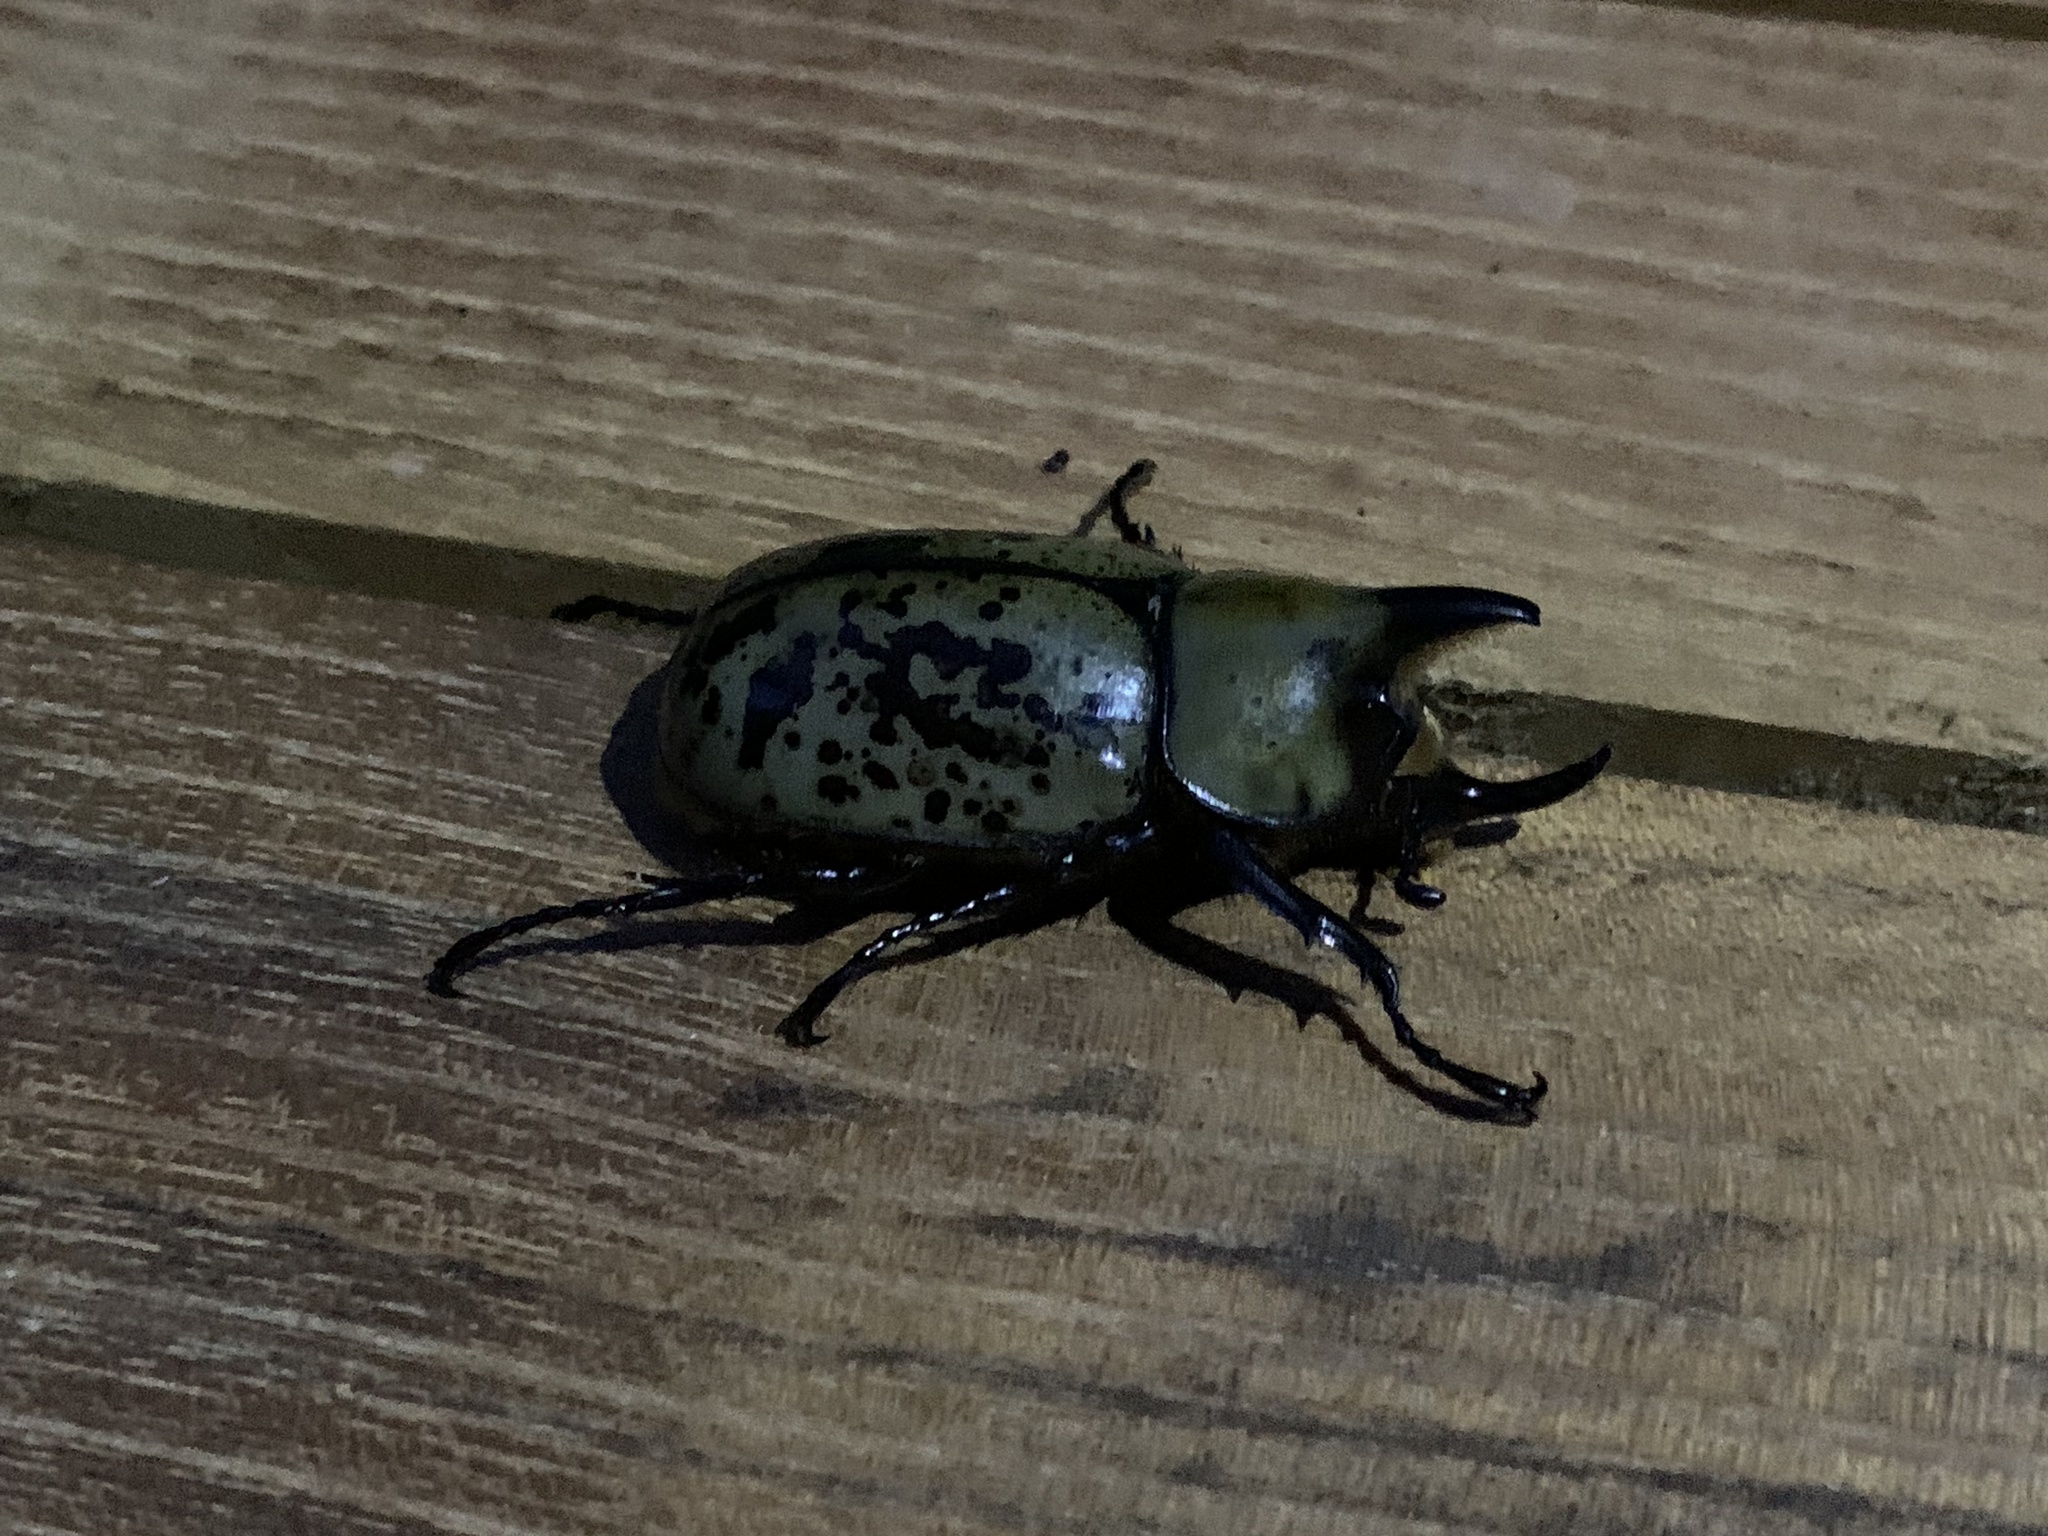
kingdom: Animalia
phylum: Arthropoda
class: Insecta
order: Coleoptera
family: Scarabaeidae
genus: Dynastes
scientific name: Dynastes tityus
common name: Eastern hercules beetle
